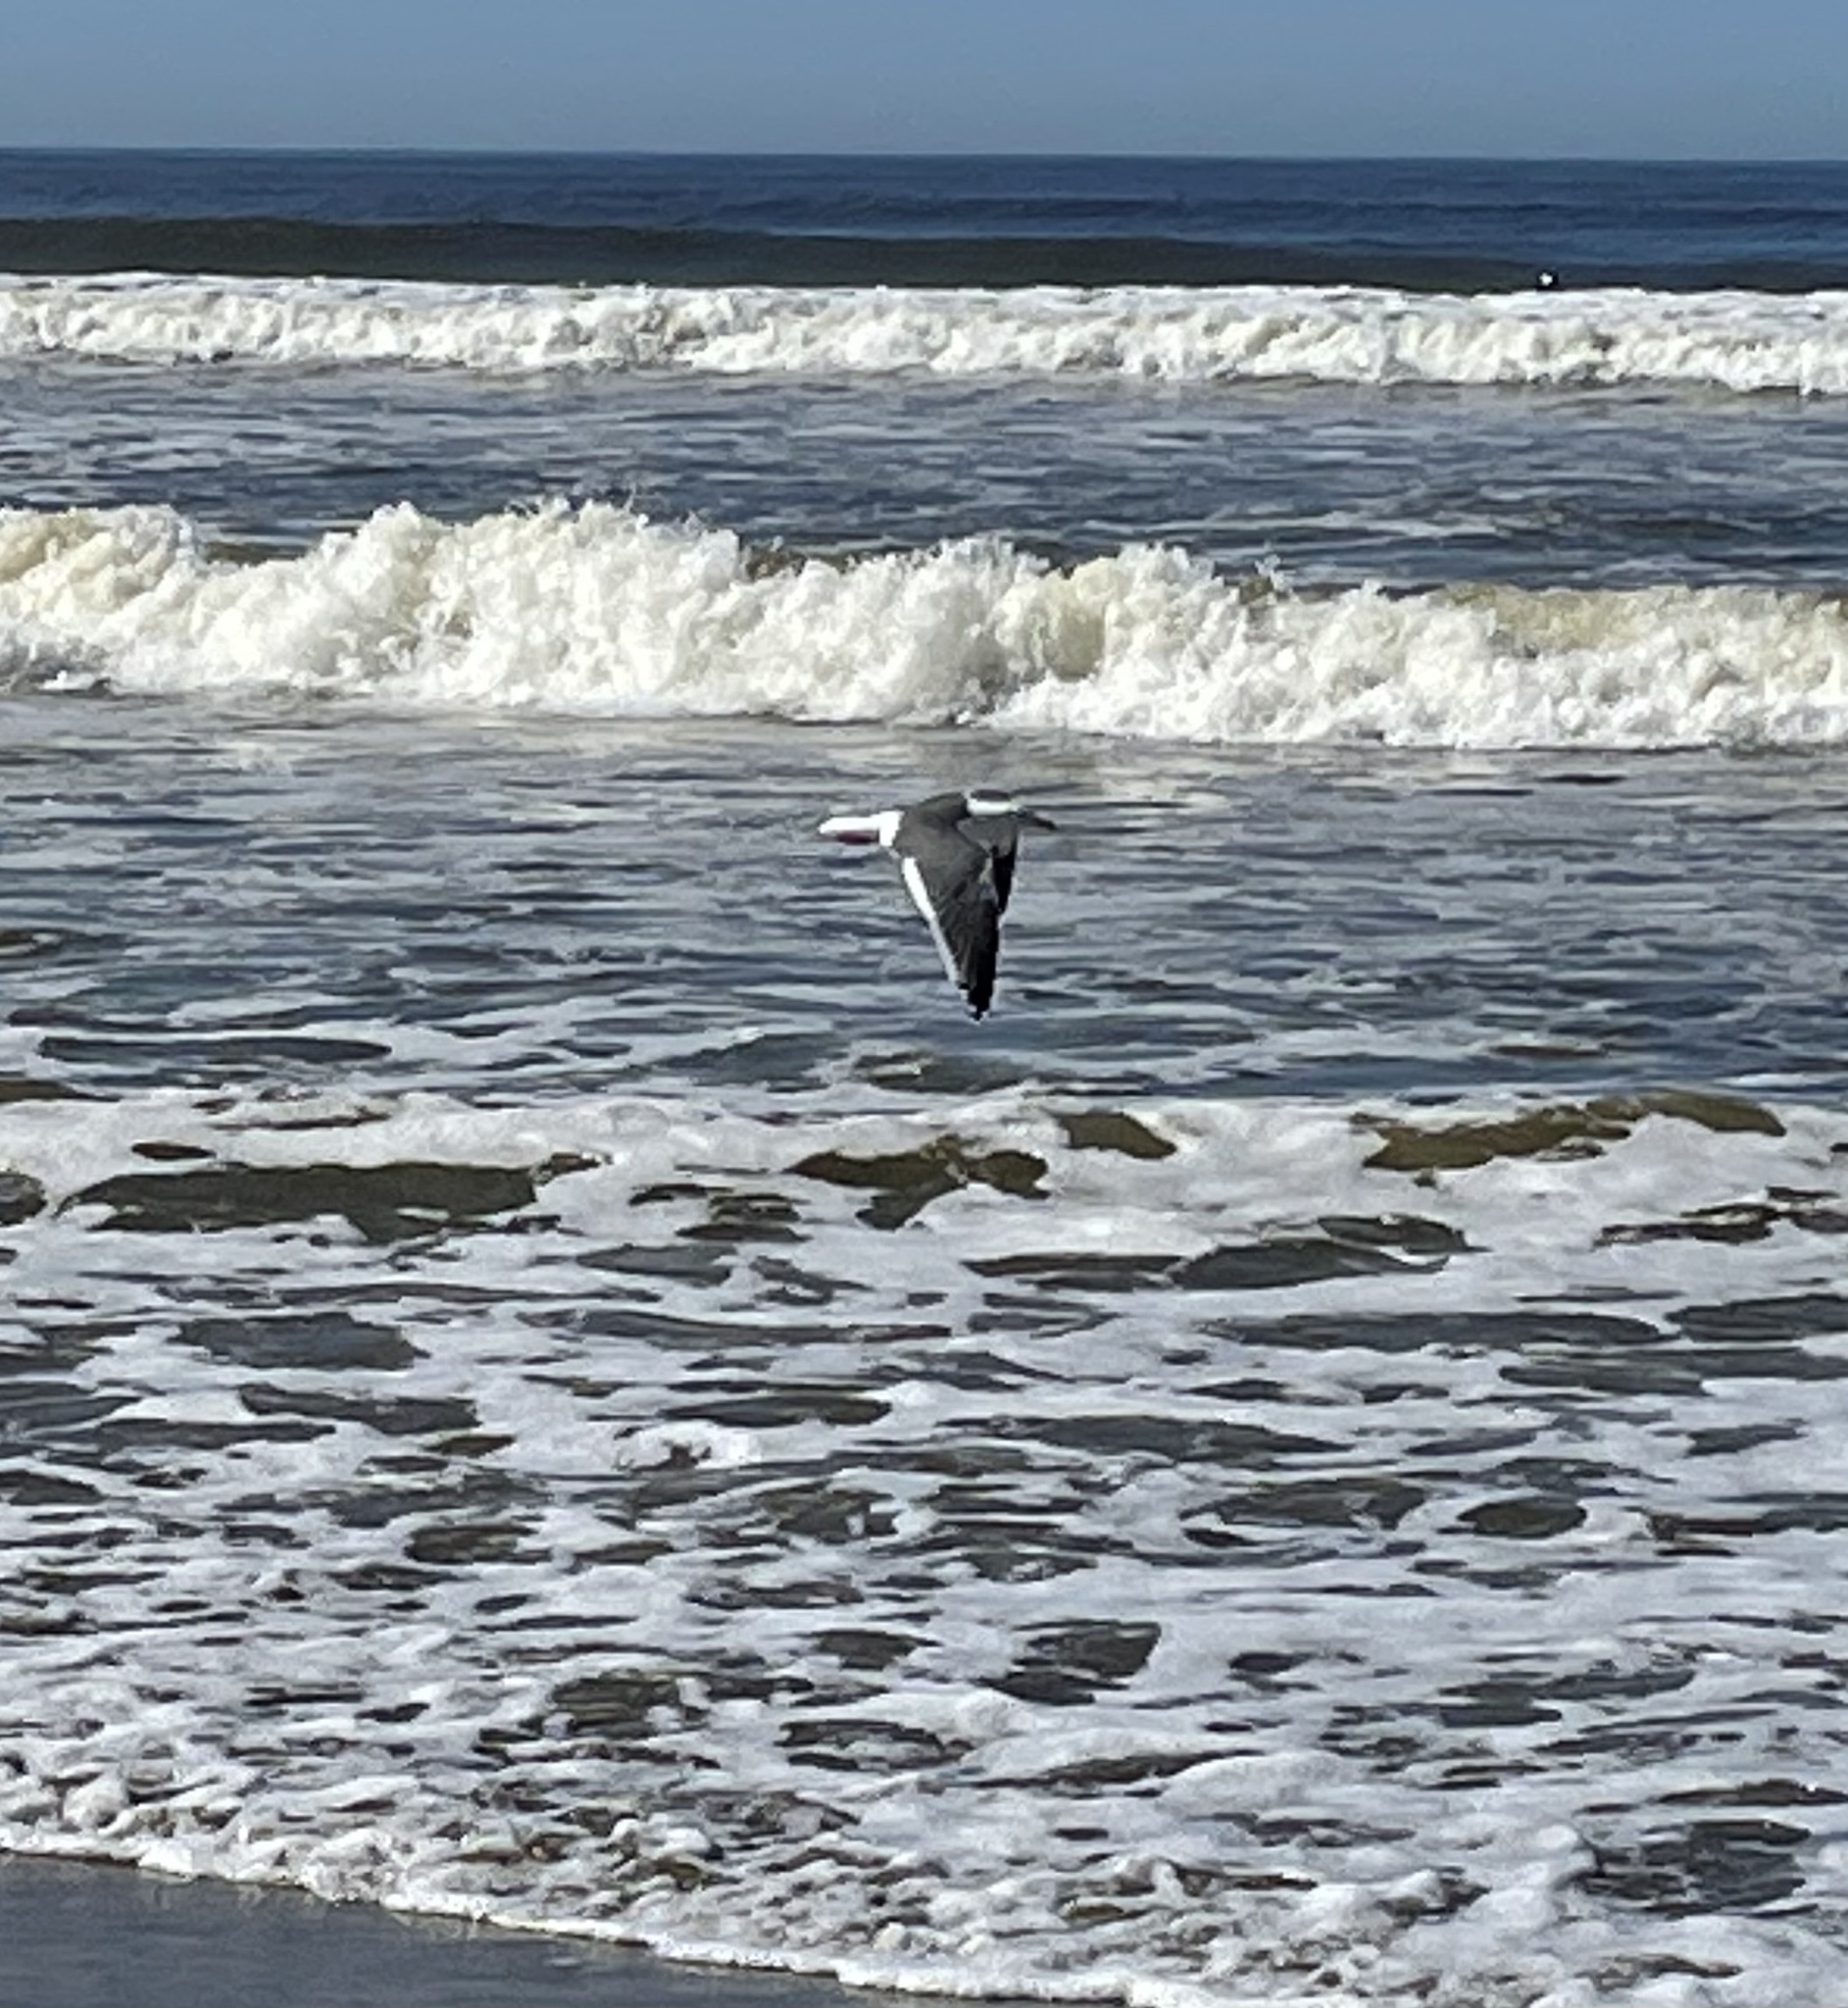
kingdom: Animalia
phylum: Chordata
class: Aves
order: Charadriiformes
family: Laridae
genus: Larus
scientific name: Larus occidentalis
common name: Western gull
